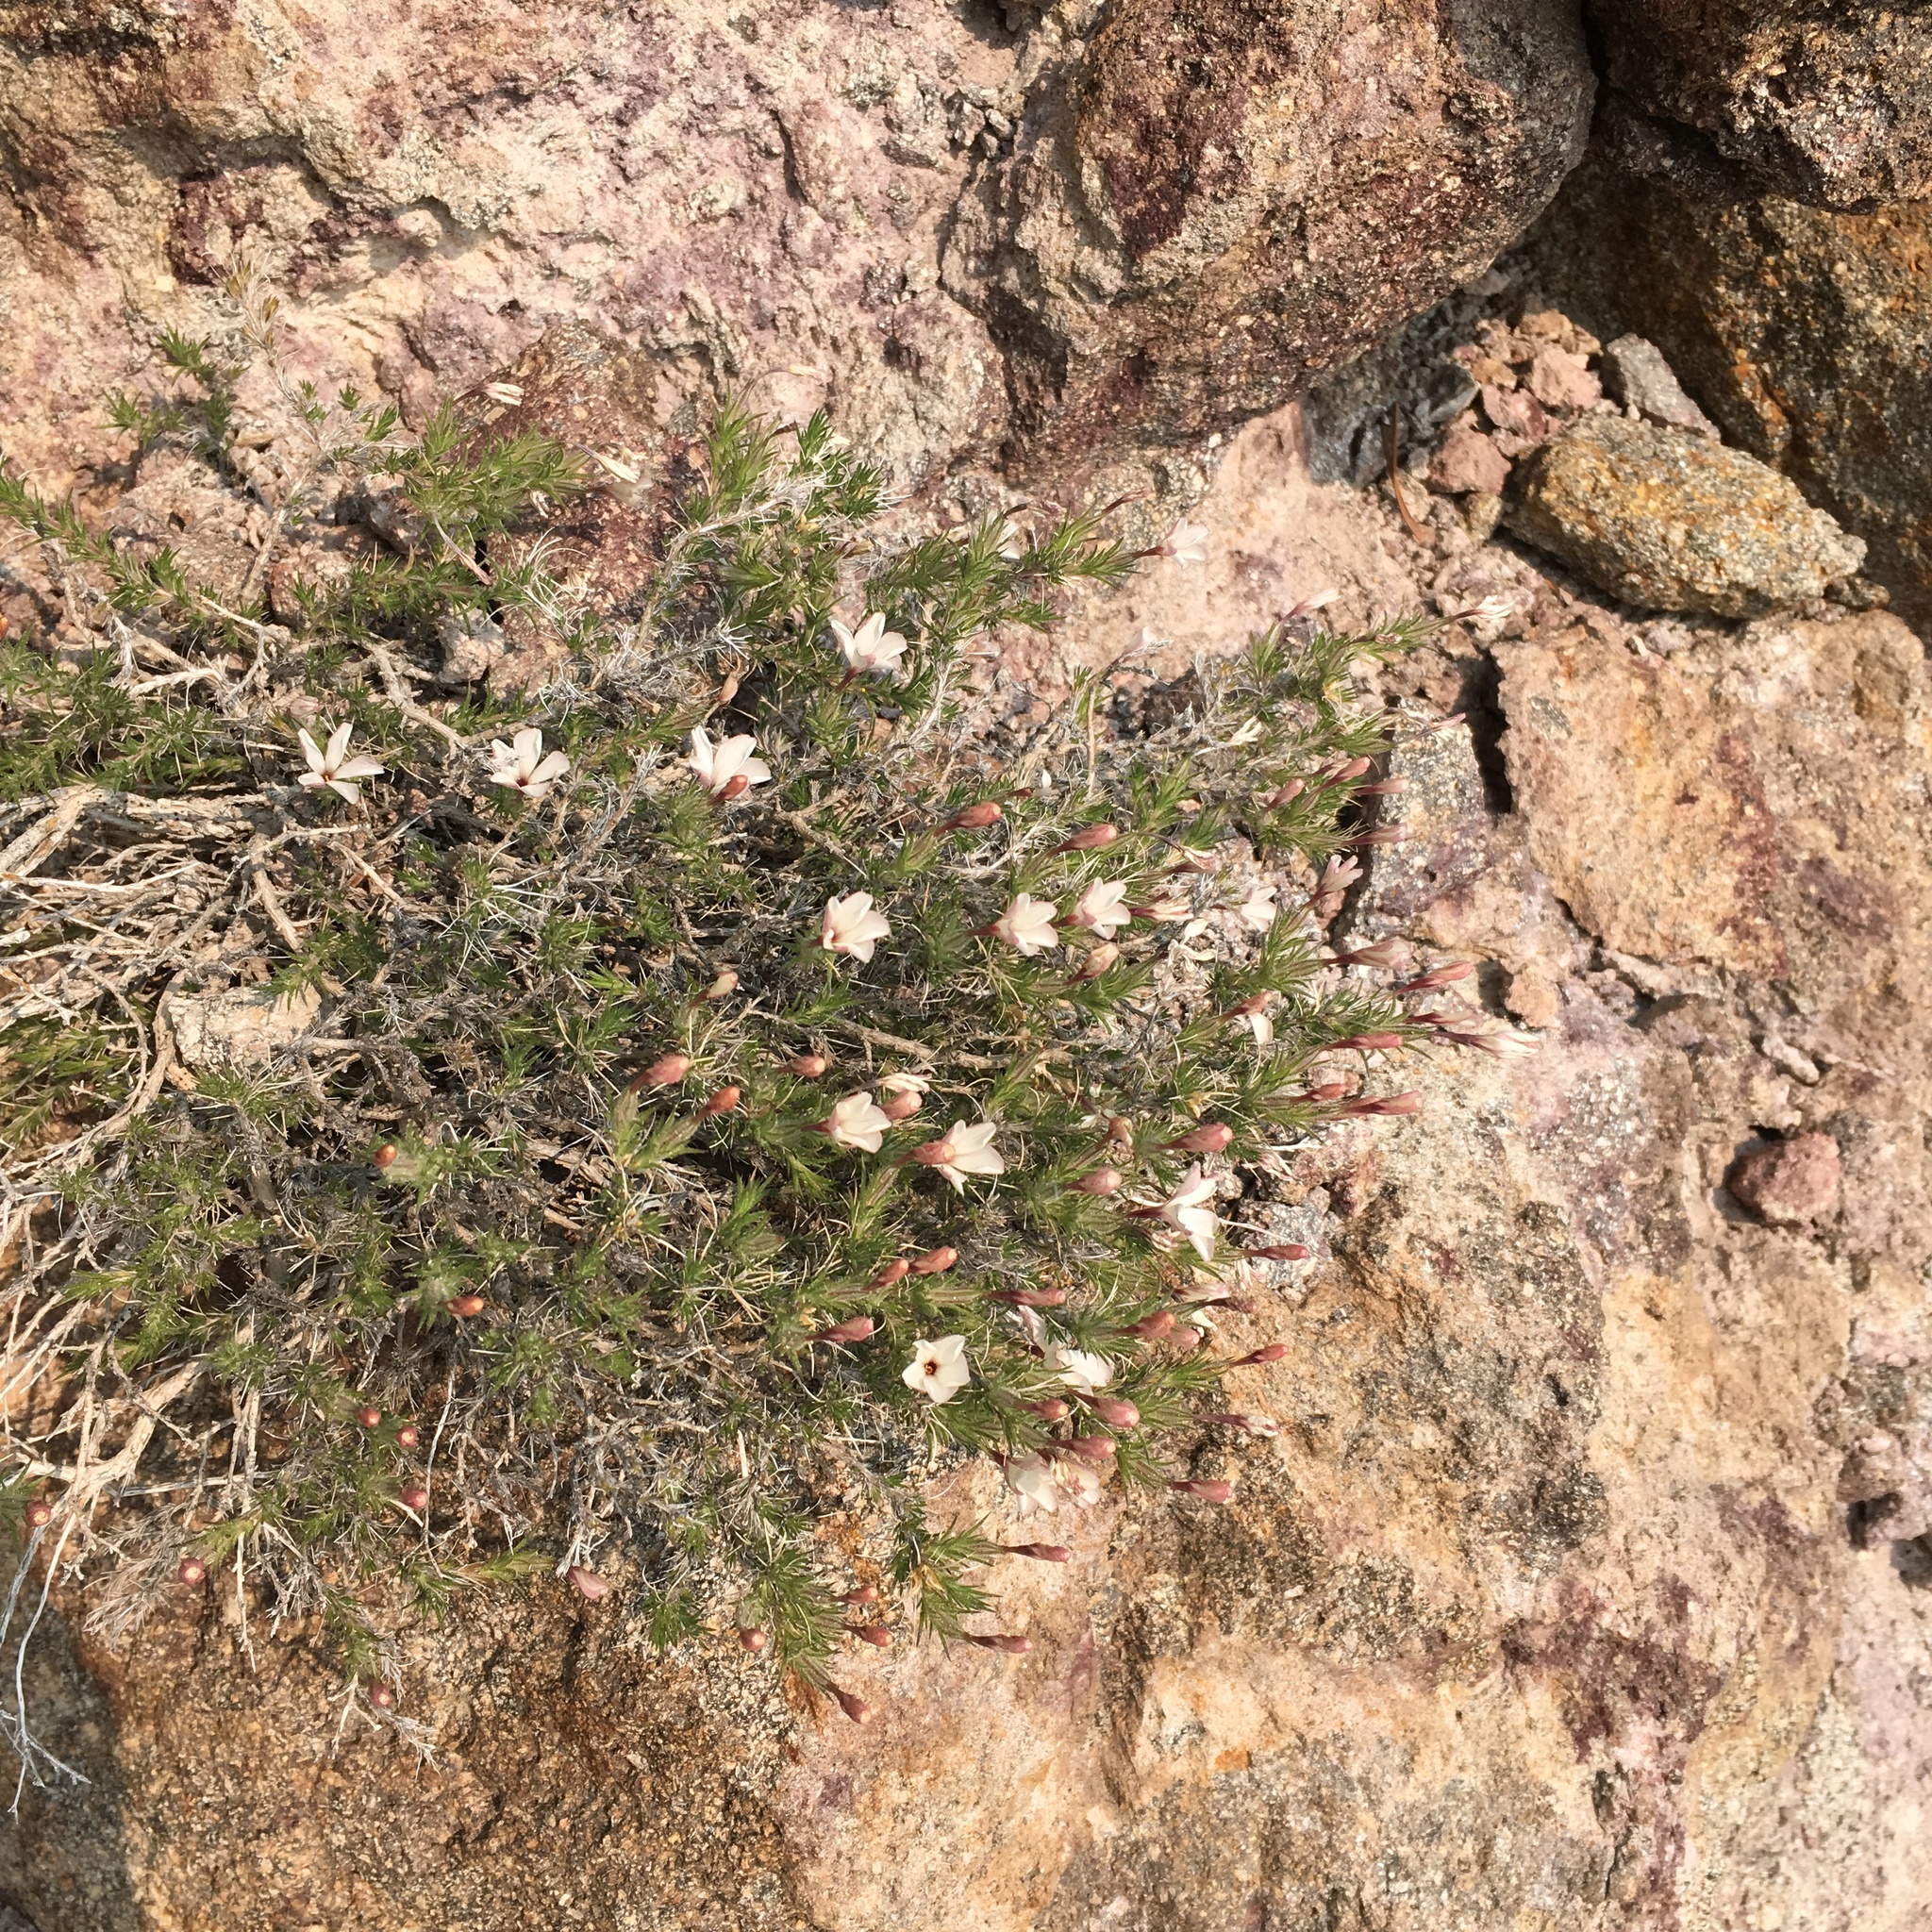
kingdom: Plantae
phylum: Tracheophyta
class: Magnoliopsida
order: Ericales
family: Polemoniaceae
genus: Linanthus
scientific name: Linanthus pungens
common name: Granite prickly phlox
